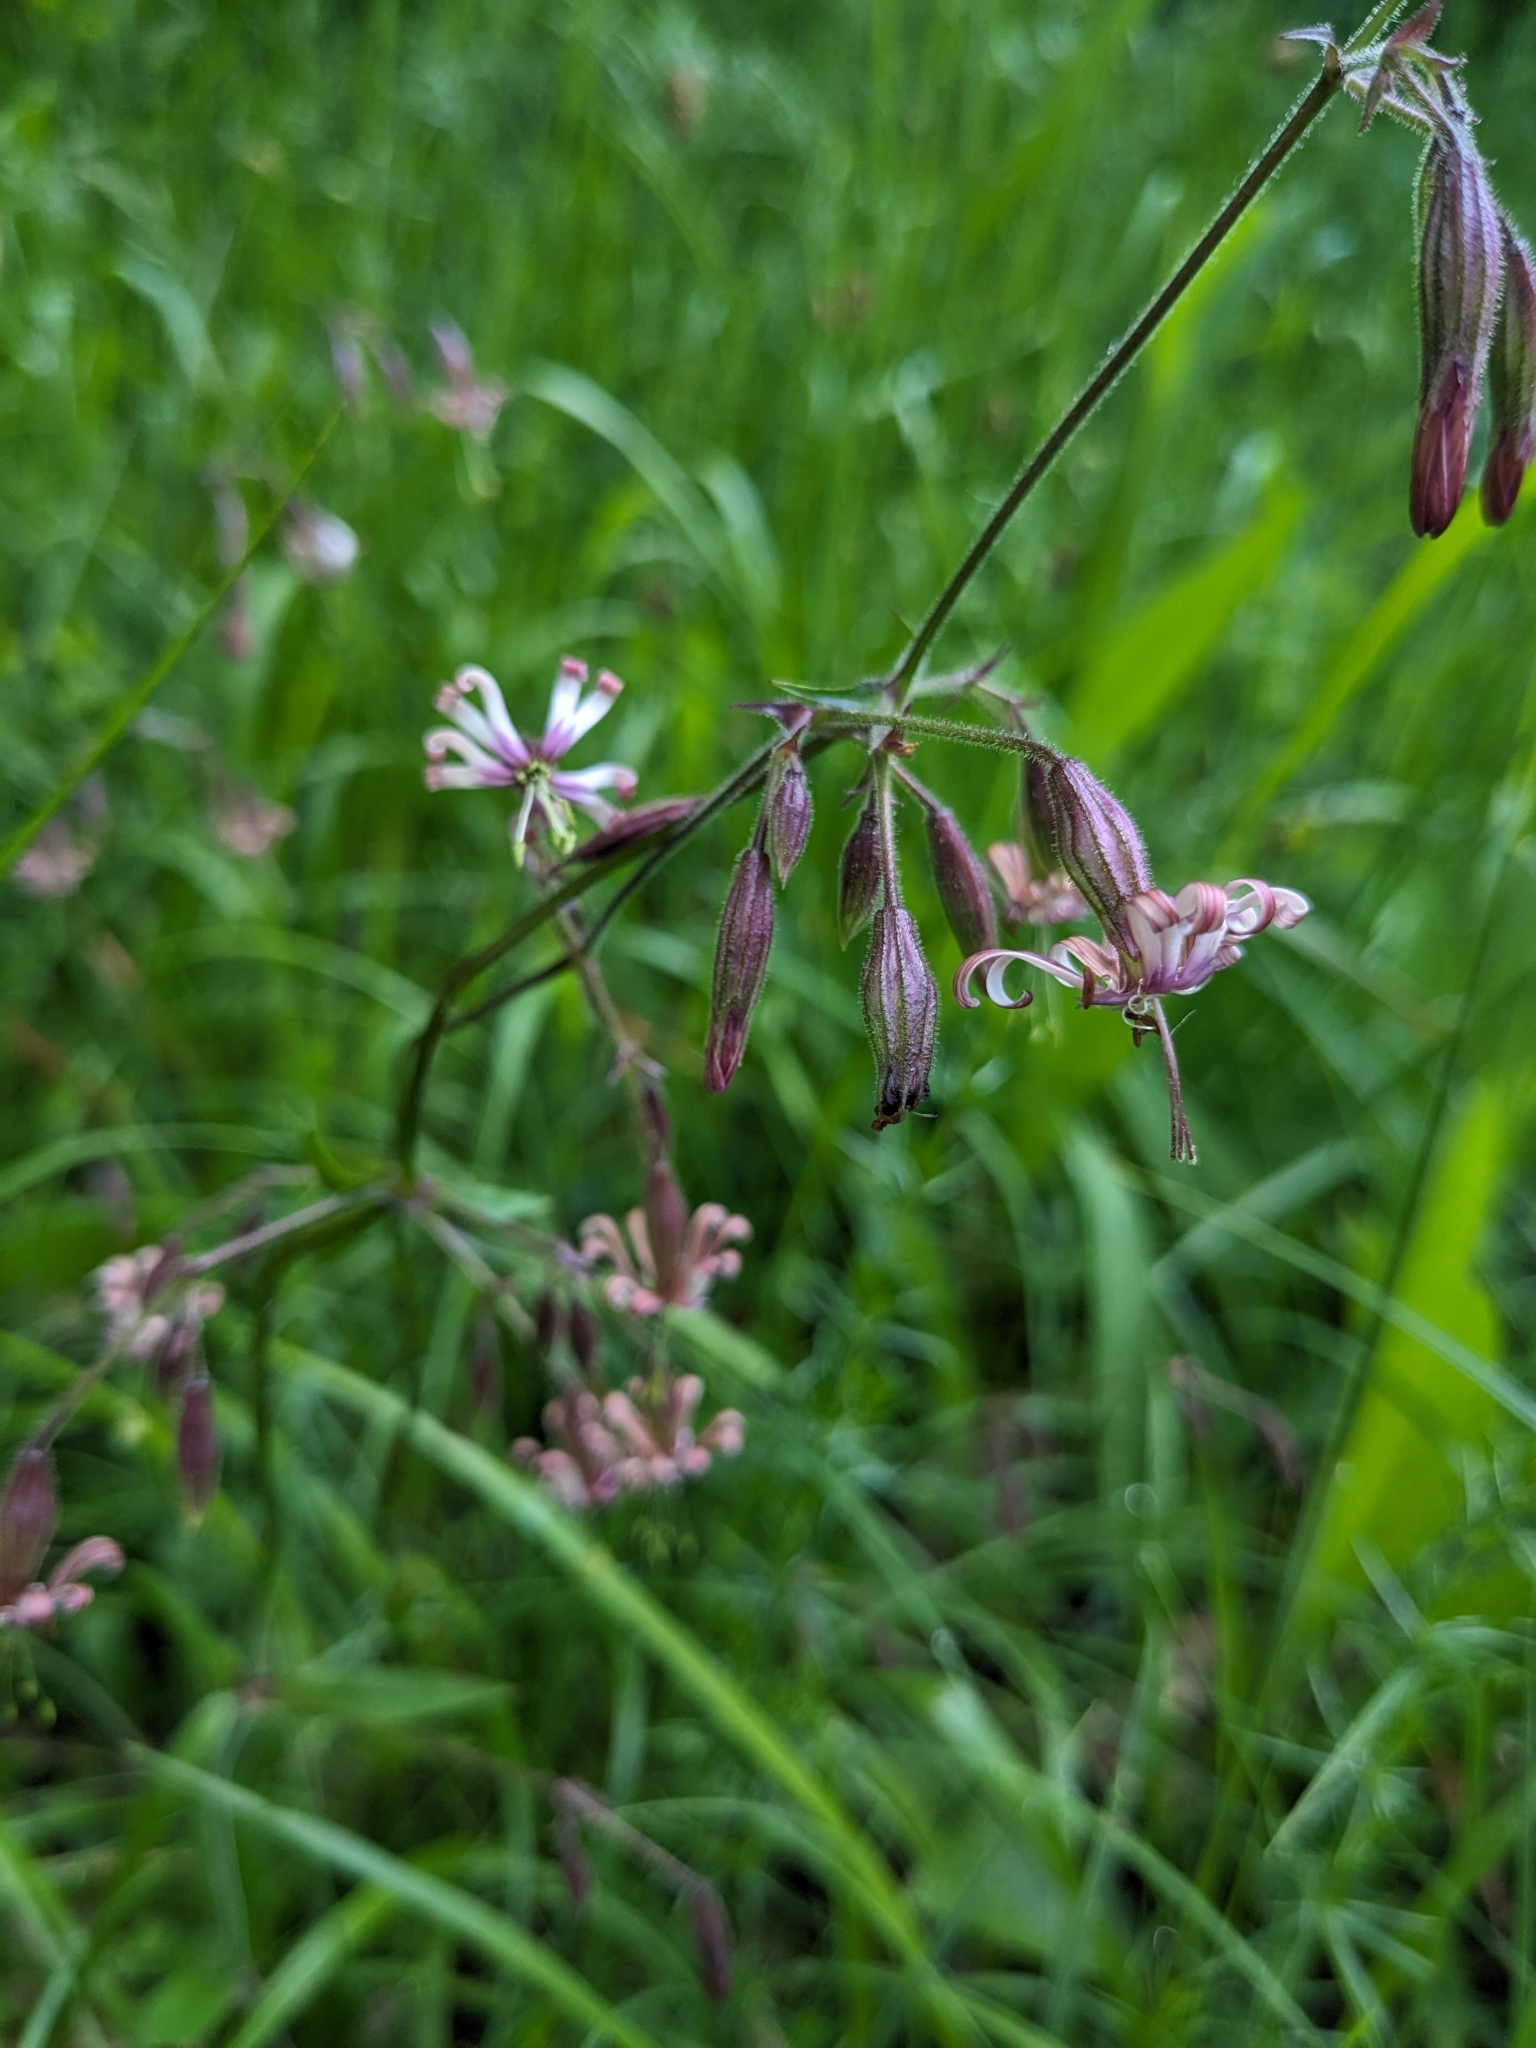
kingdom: Plantae
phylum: Tracheophyta
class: Magnoliopsida
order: Caryophyllales
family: Caryophyllaceae
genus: Silene
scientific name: Silene nutans
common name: Nottingham catchfly
